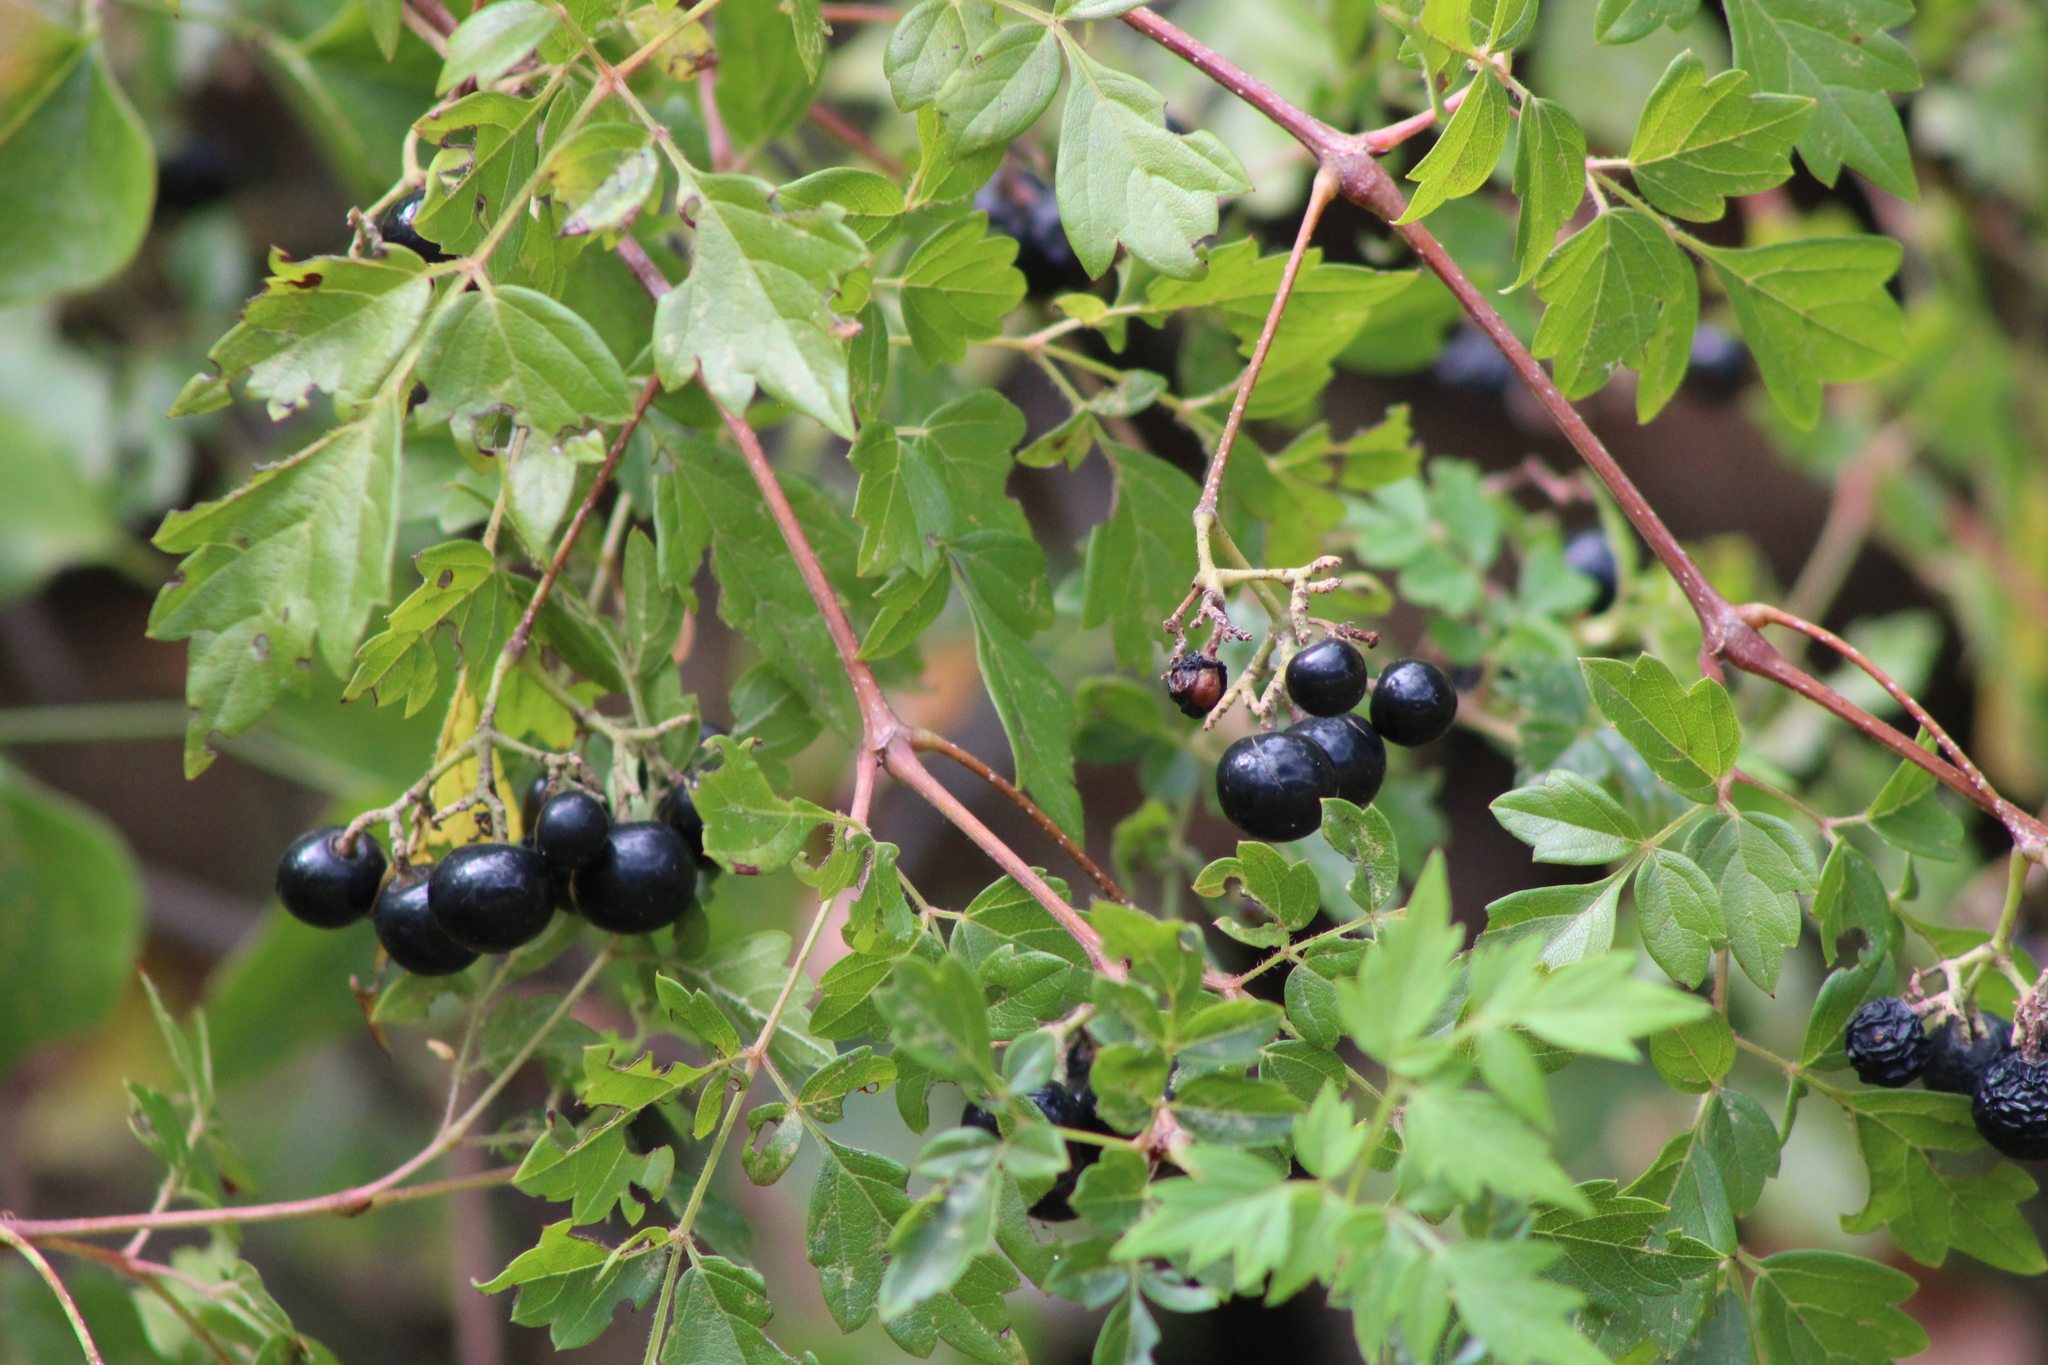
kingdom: Plantae
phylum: Tracheophyta
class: Magnoliopsida
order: Vitales
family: Vitaceae
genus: Nekemias
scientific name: Nekemias arborea
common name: Peppervine
